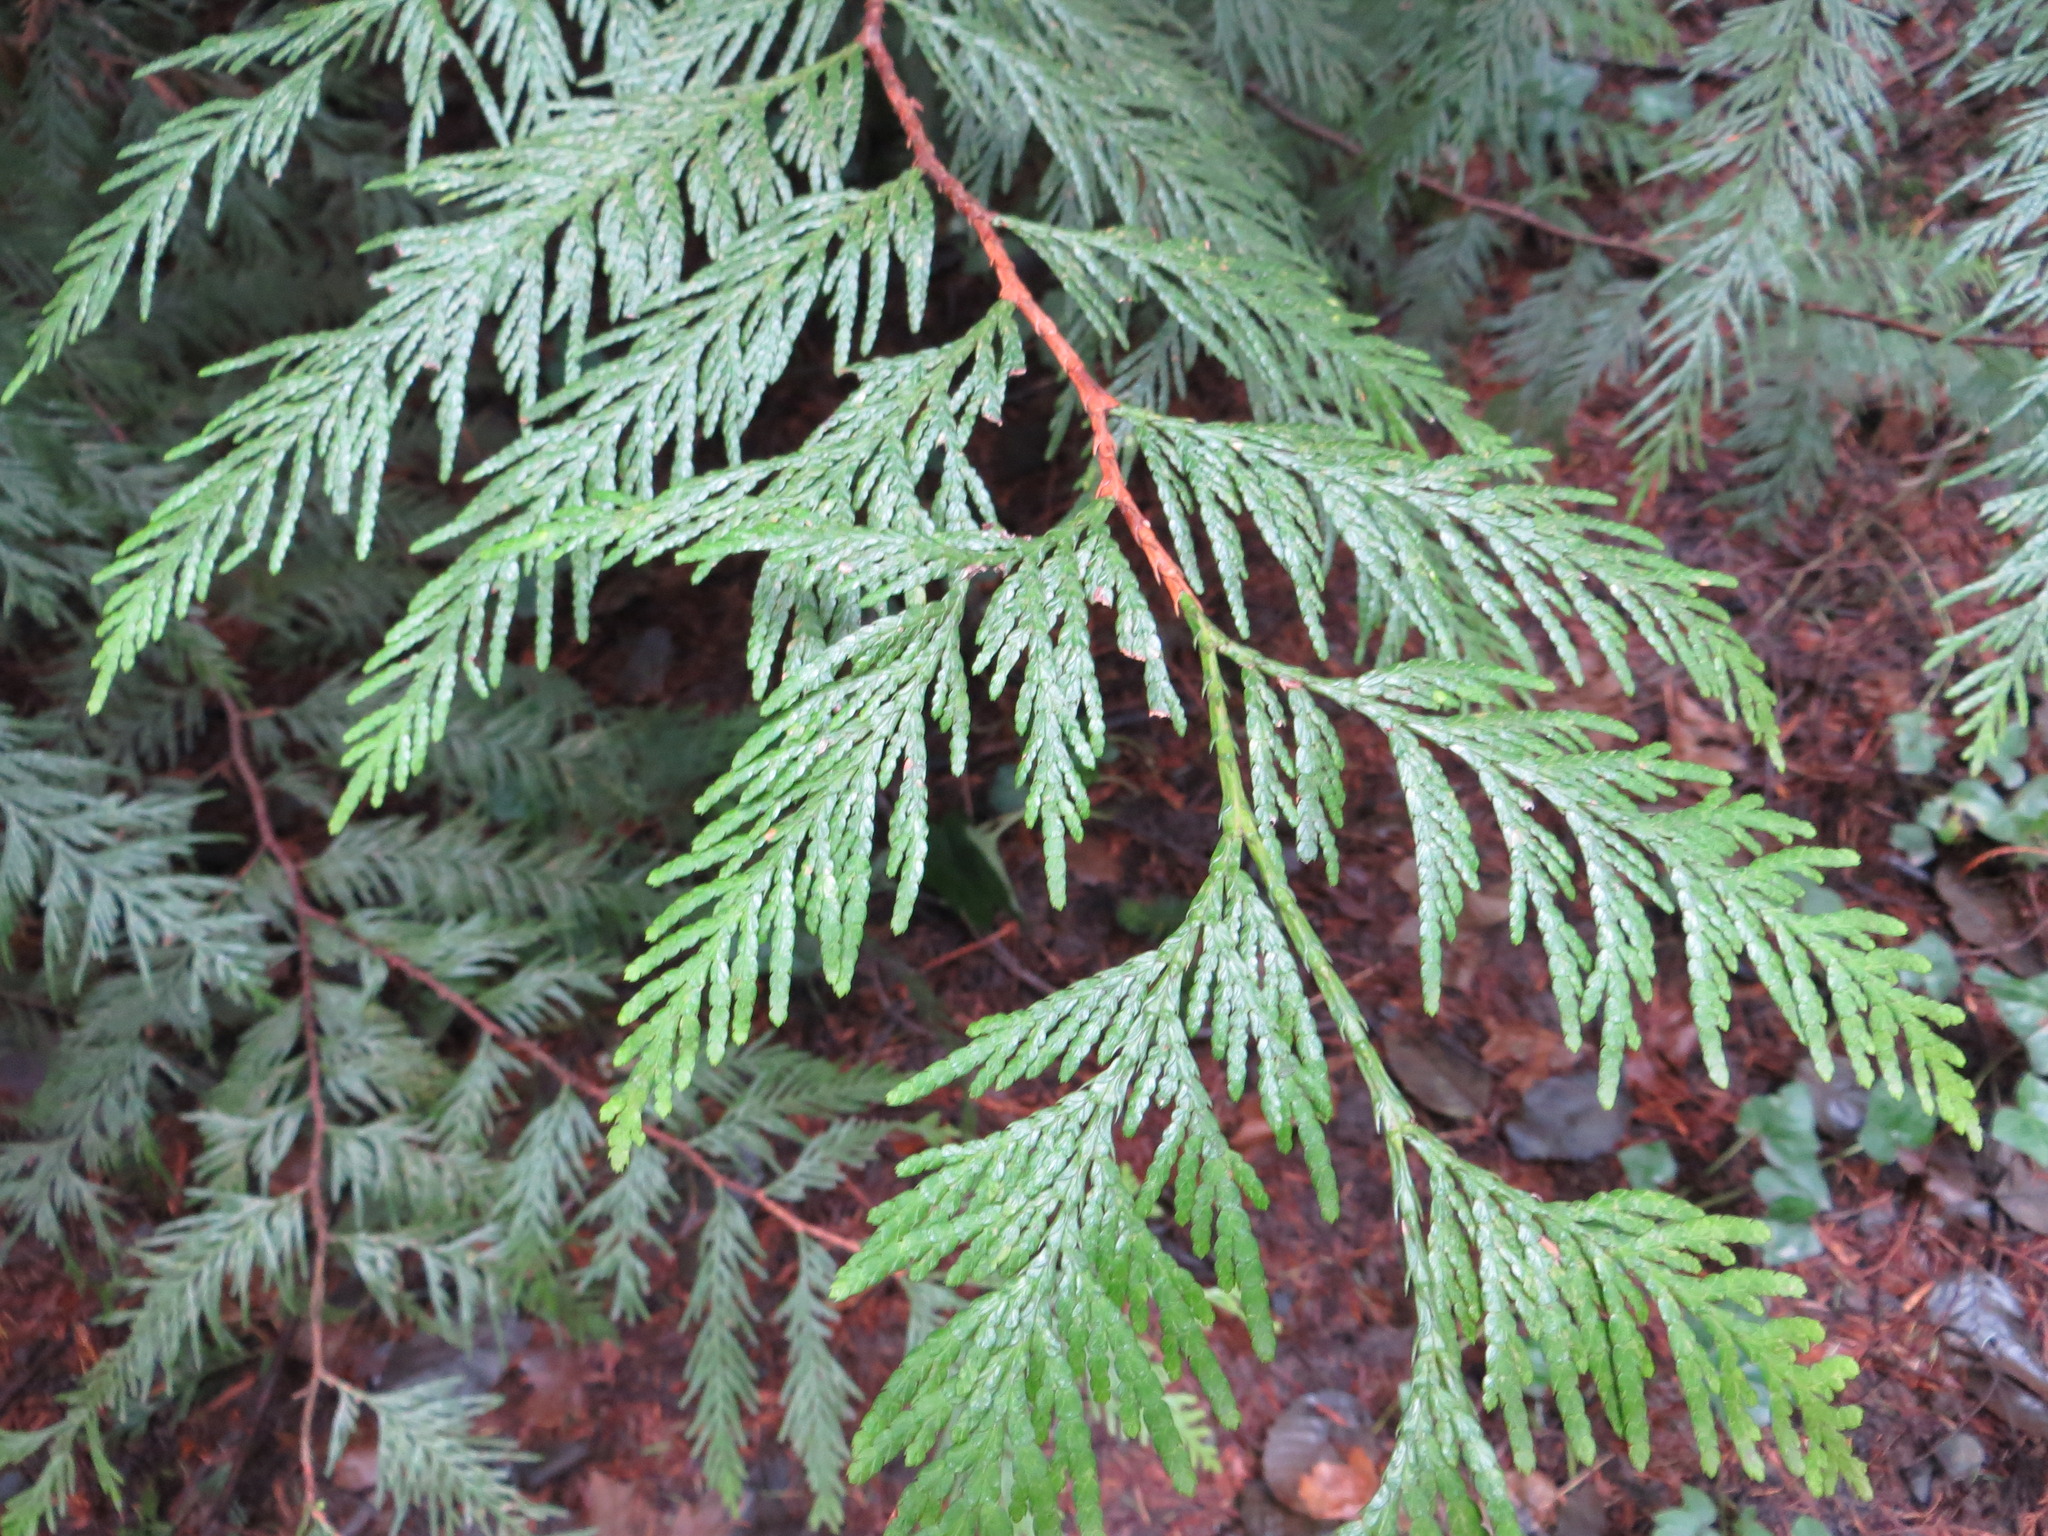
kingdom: Plantae
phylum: Tracheophyta
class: Pinopsida
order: Pinales
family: Cupressaceae
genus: Thuja
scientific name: Thuja plicata
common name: Western red-cedar
